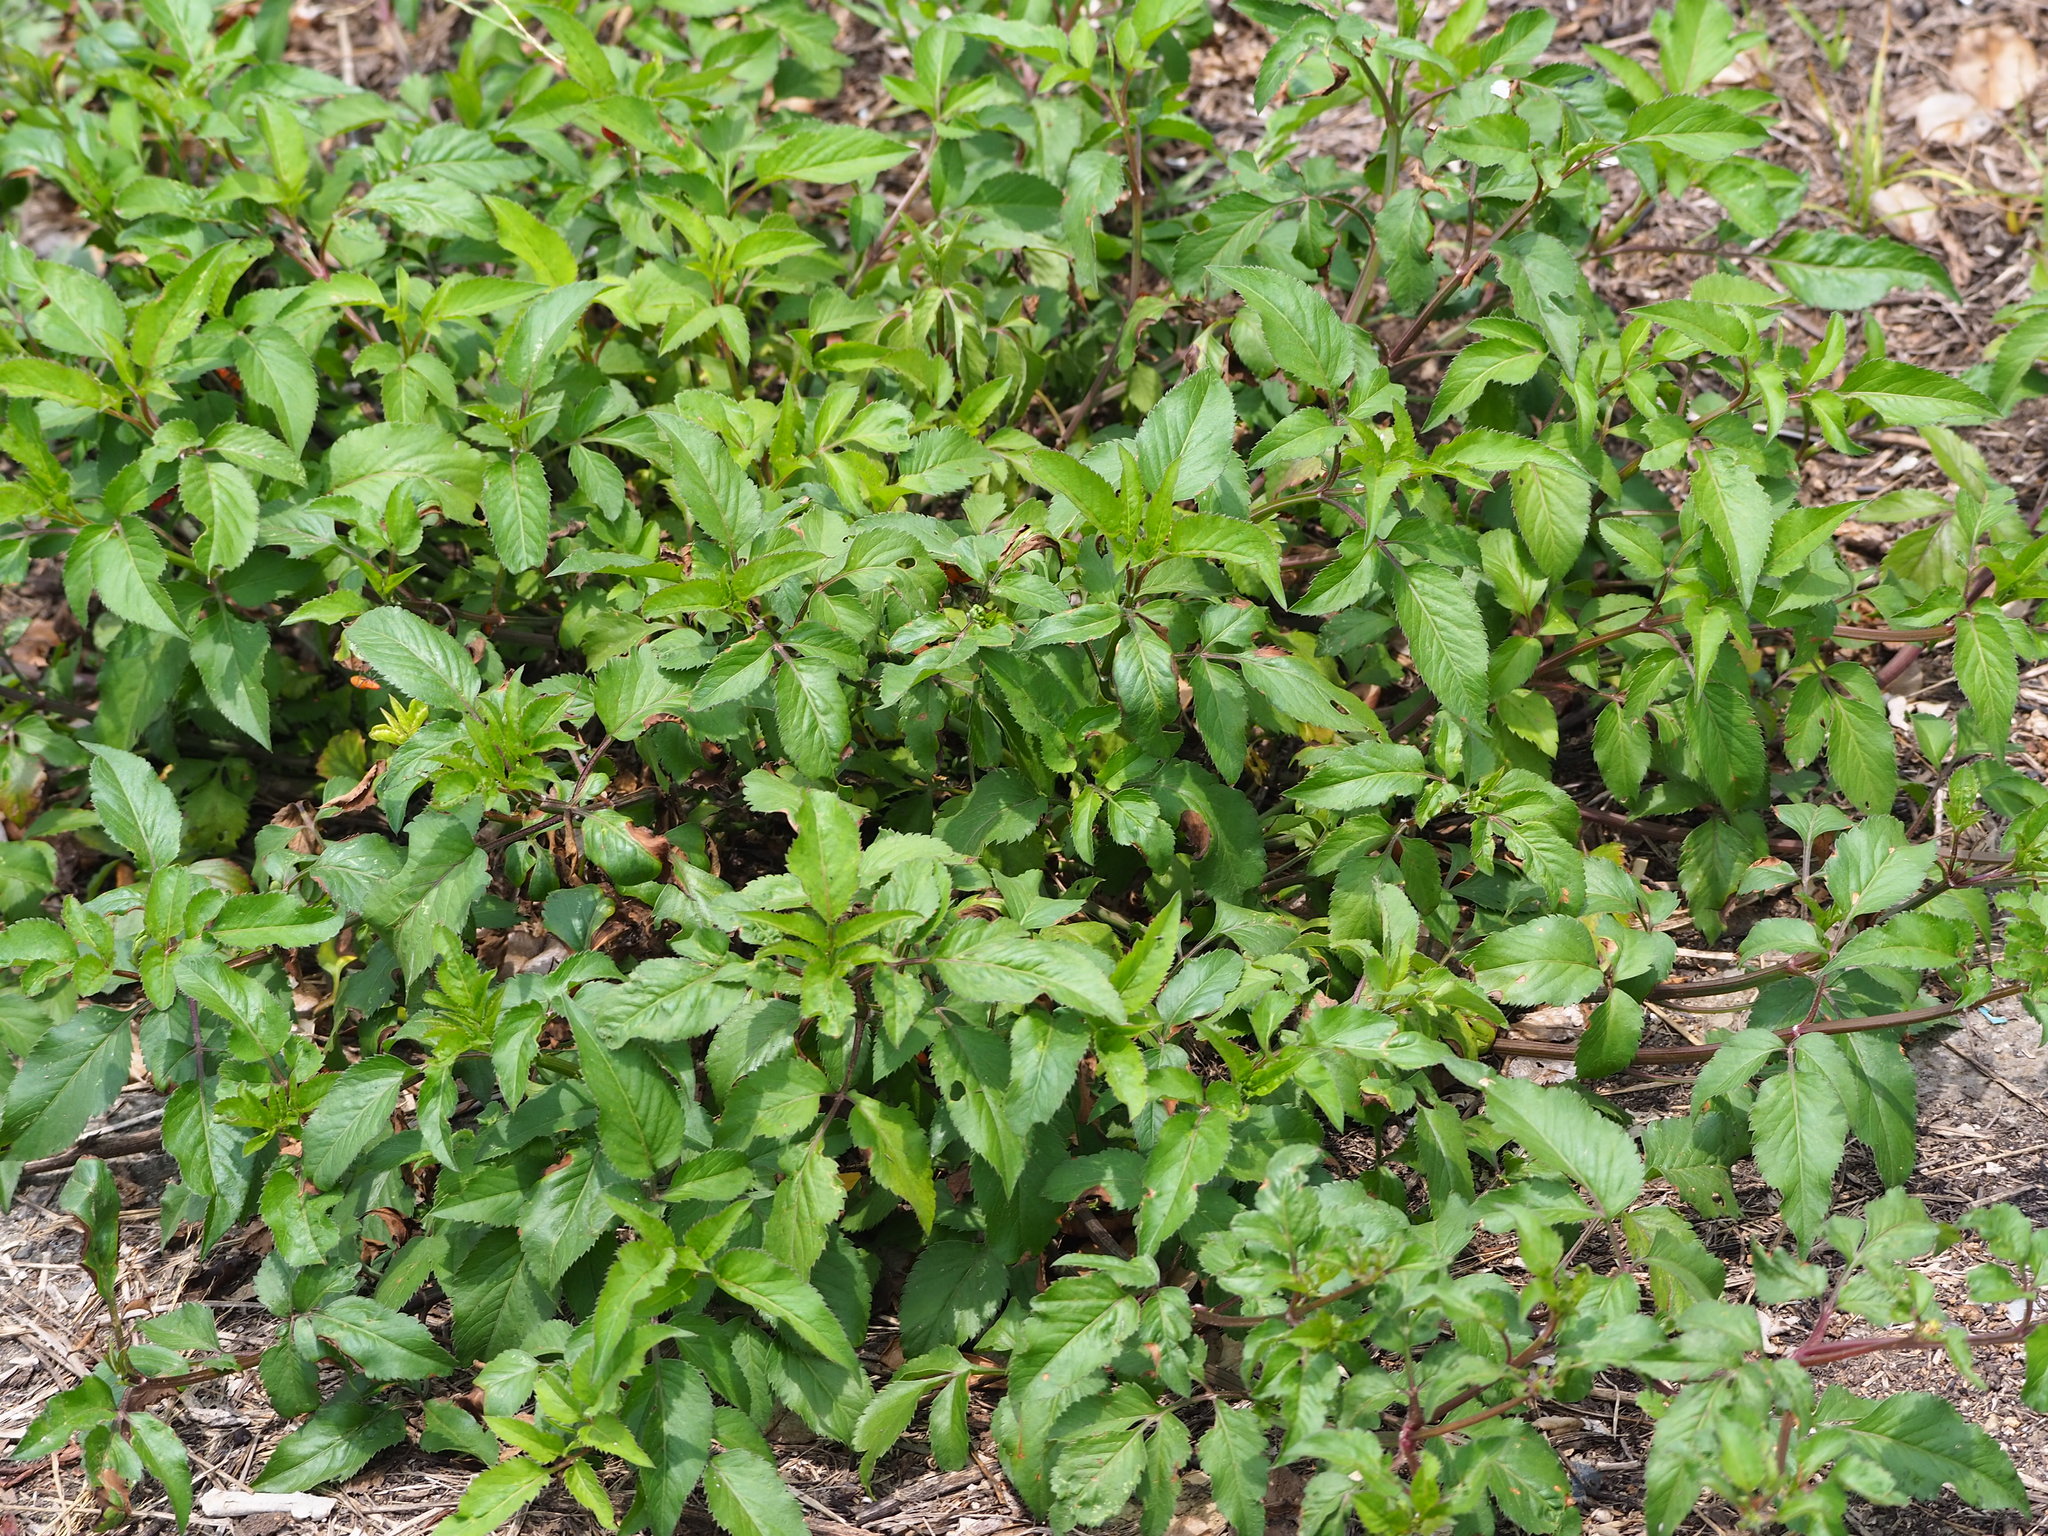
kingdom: Plantae
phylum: Tracheophyta
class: Magnoliopsida
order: Asterales
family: Asteraceae
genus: Bidens
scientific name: Bidens alba
